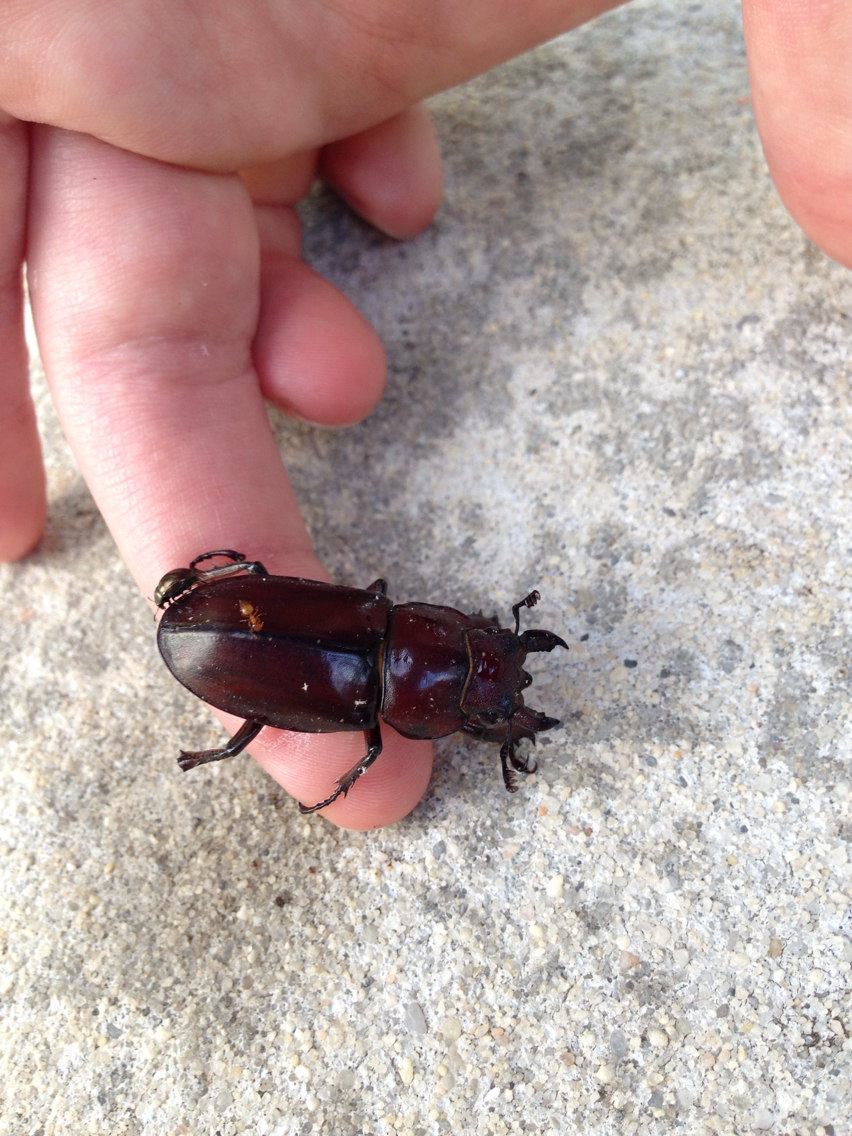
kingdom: Animalia
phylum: Arthropoda
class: Insecta
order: Coleoptera
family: Lucanidae
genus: Lucanus
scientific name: Lucanus elaphus
